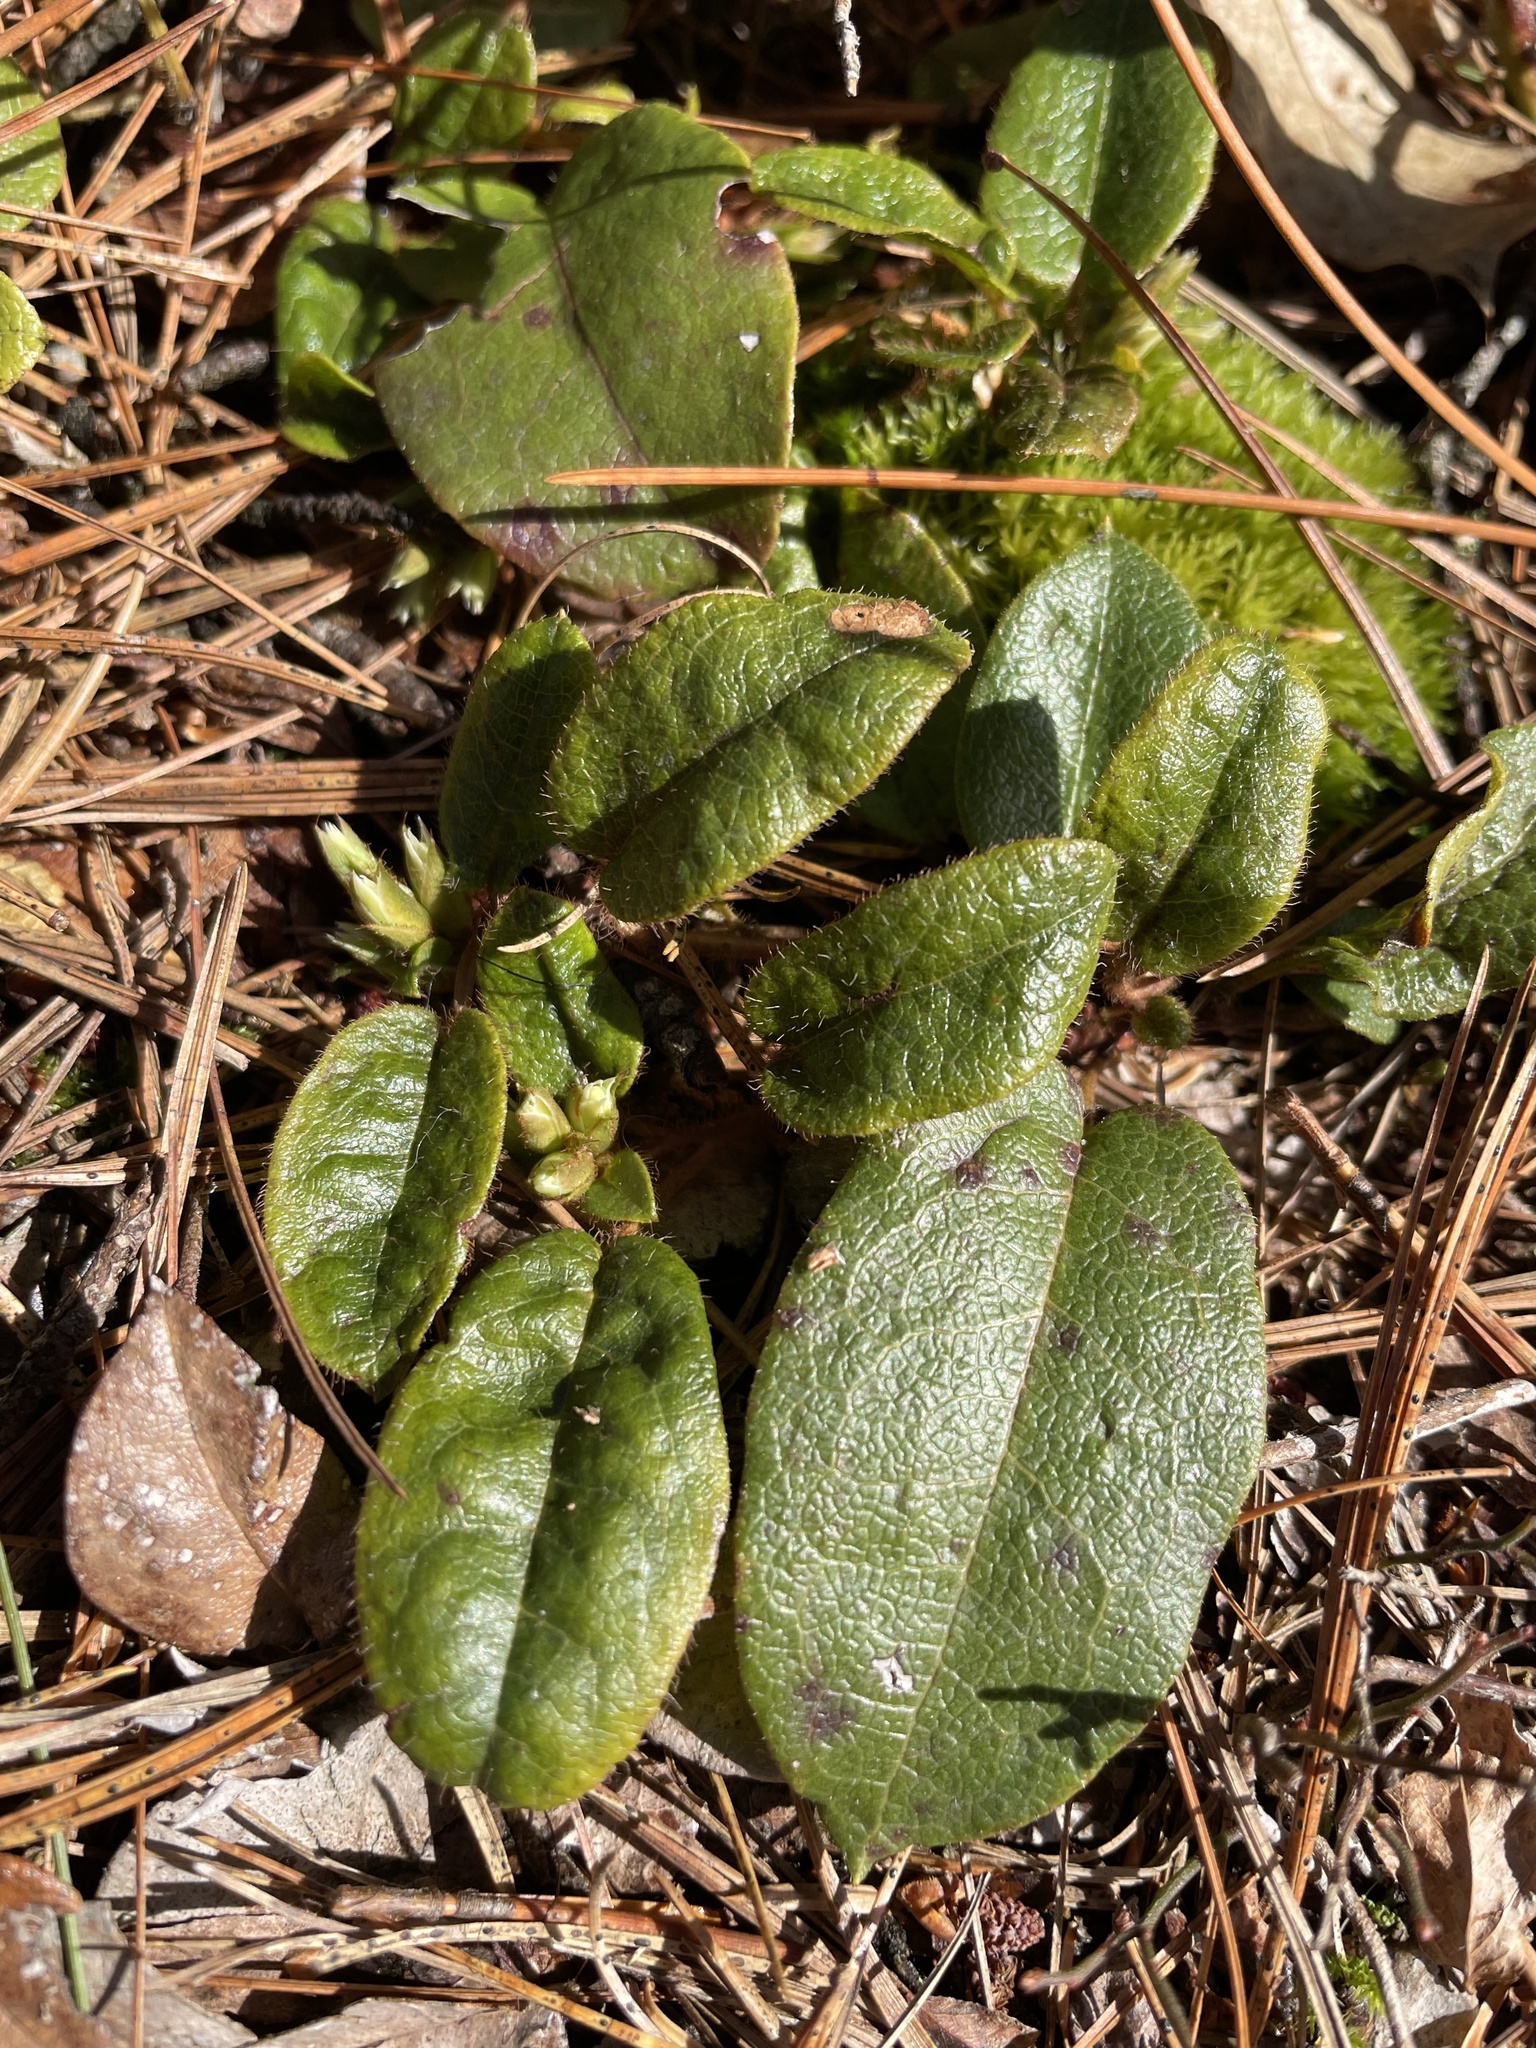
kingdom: Plantae
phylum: Tracheophyta
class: Magnoliopsida
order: Ericales
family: Ericaceae
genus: Epigaea
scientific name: Epigaea repens
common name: Gravelroot
